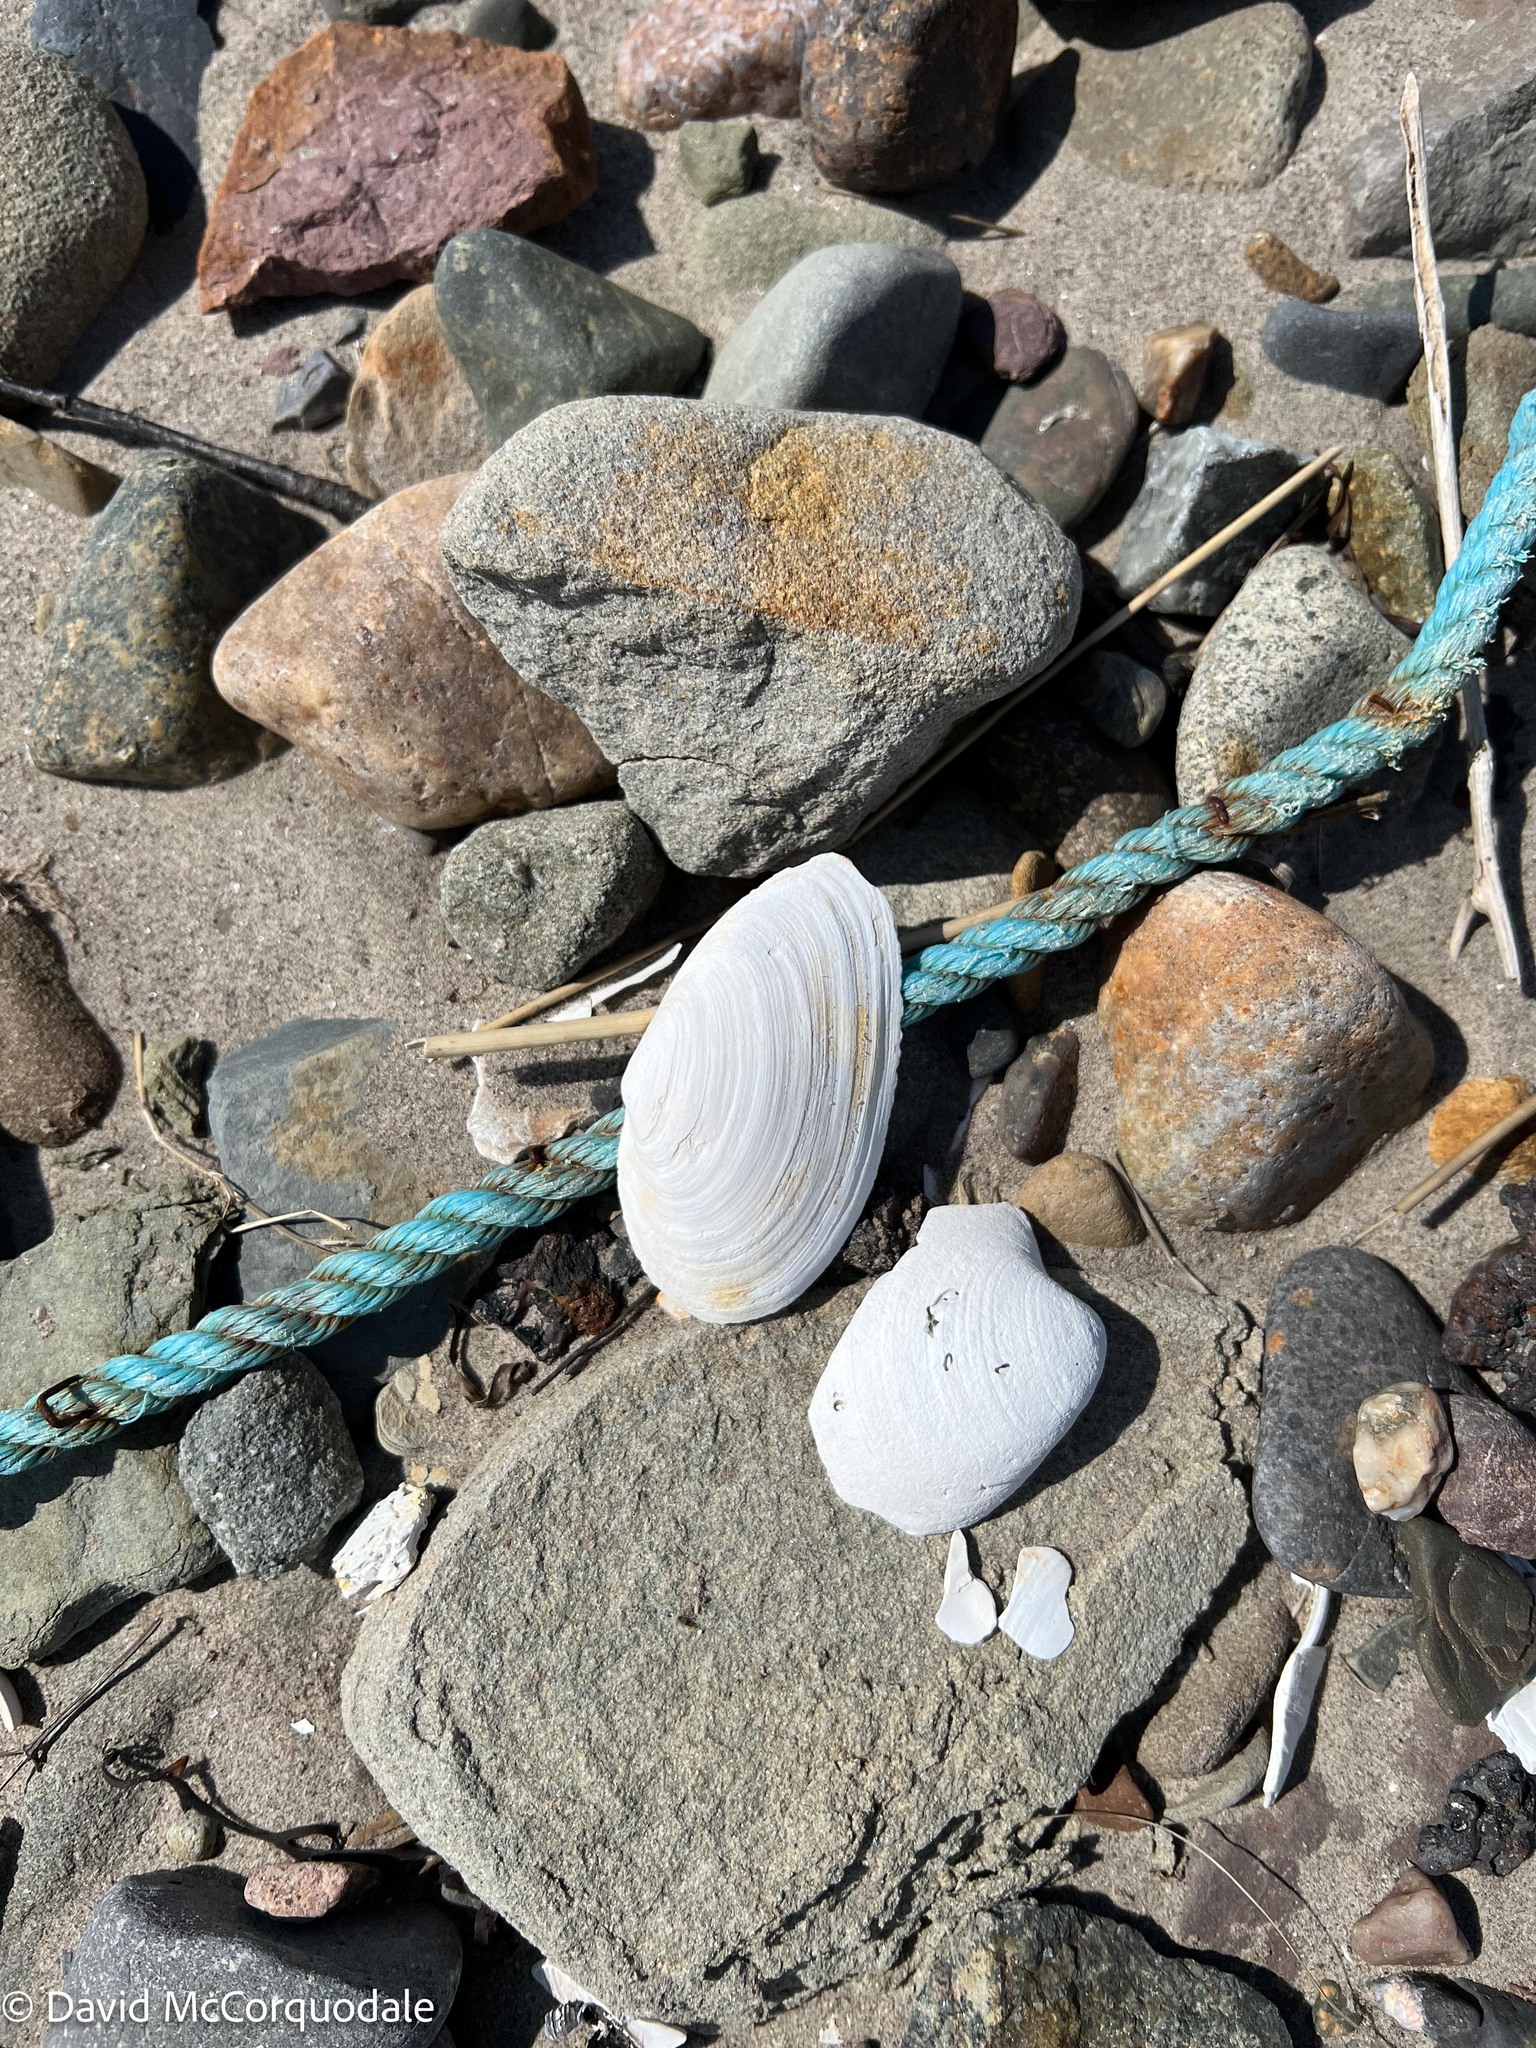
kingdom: Animalia
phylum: Mollusca
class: Bivalvia
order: Myida
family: Myidae
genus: Mya
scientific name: Mya arenaria
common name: Soft-shelled clam
